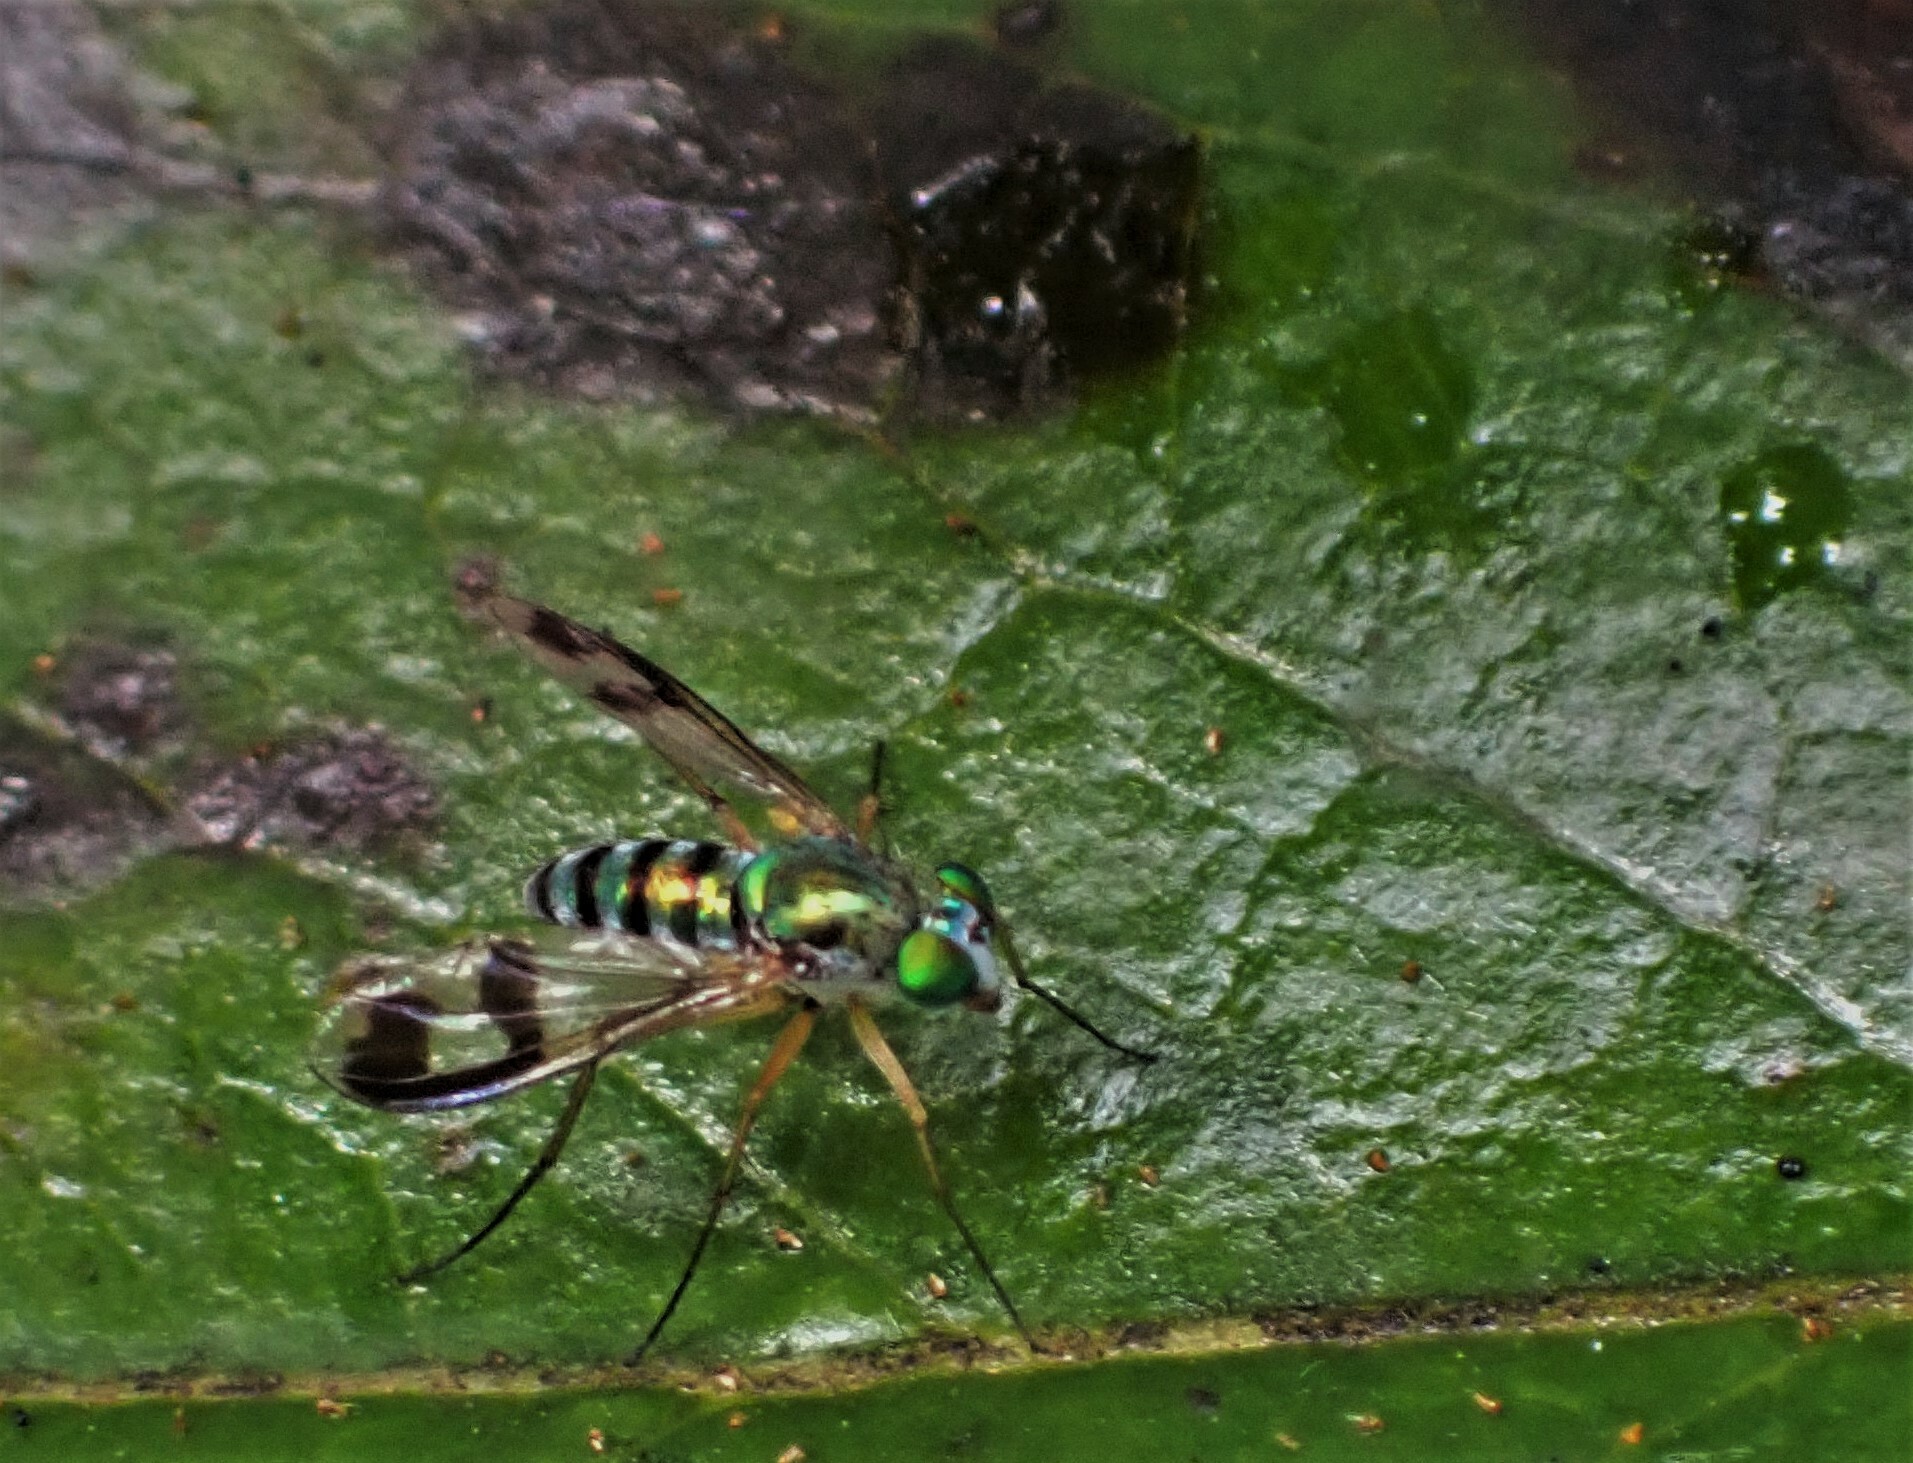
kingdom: Animalia
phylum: Arthropoda
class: Insecta
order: Diptera
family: Dolichopodidae
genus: Austrosciapus
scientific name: Austrosciapus proximus
